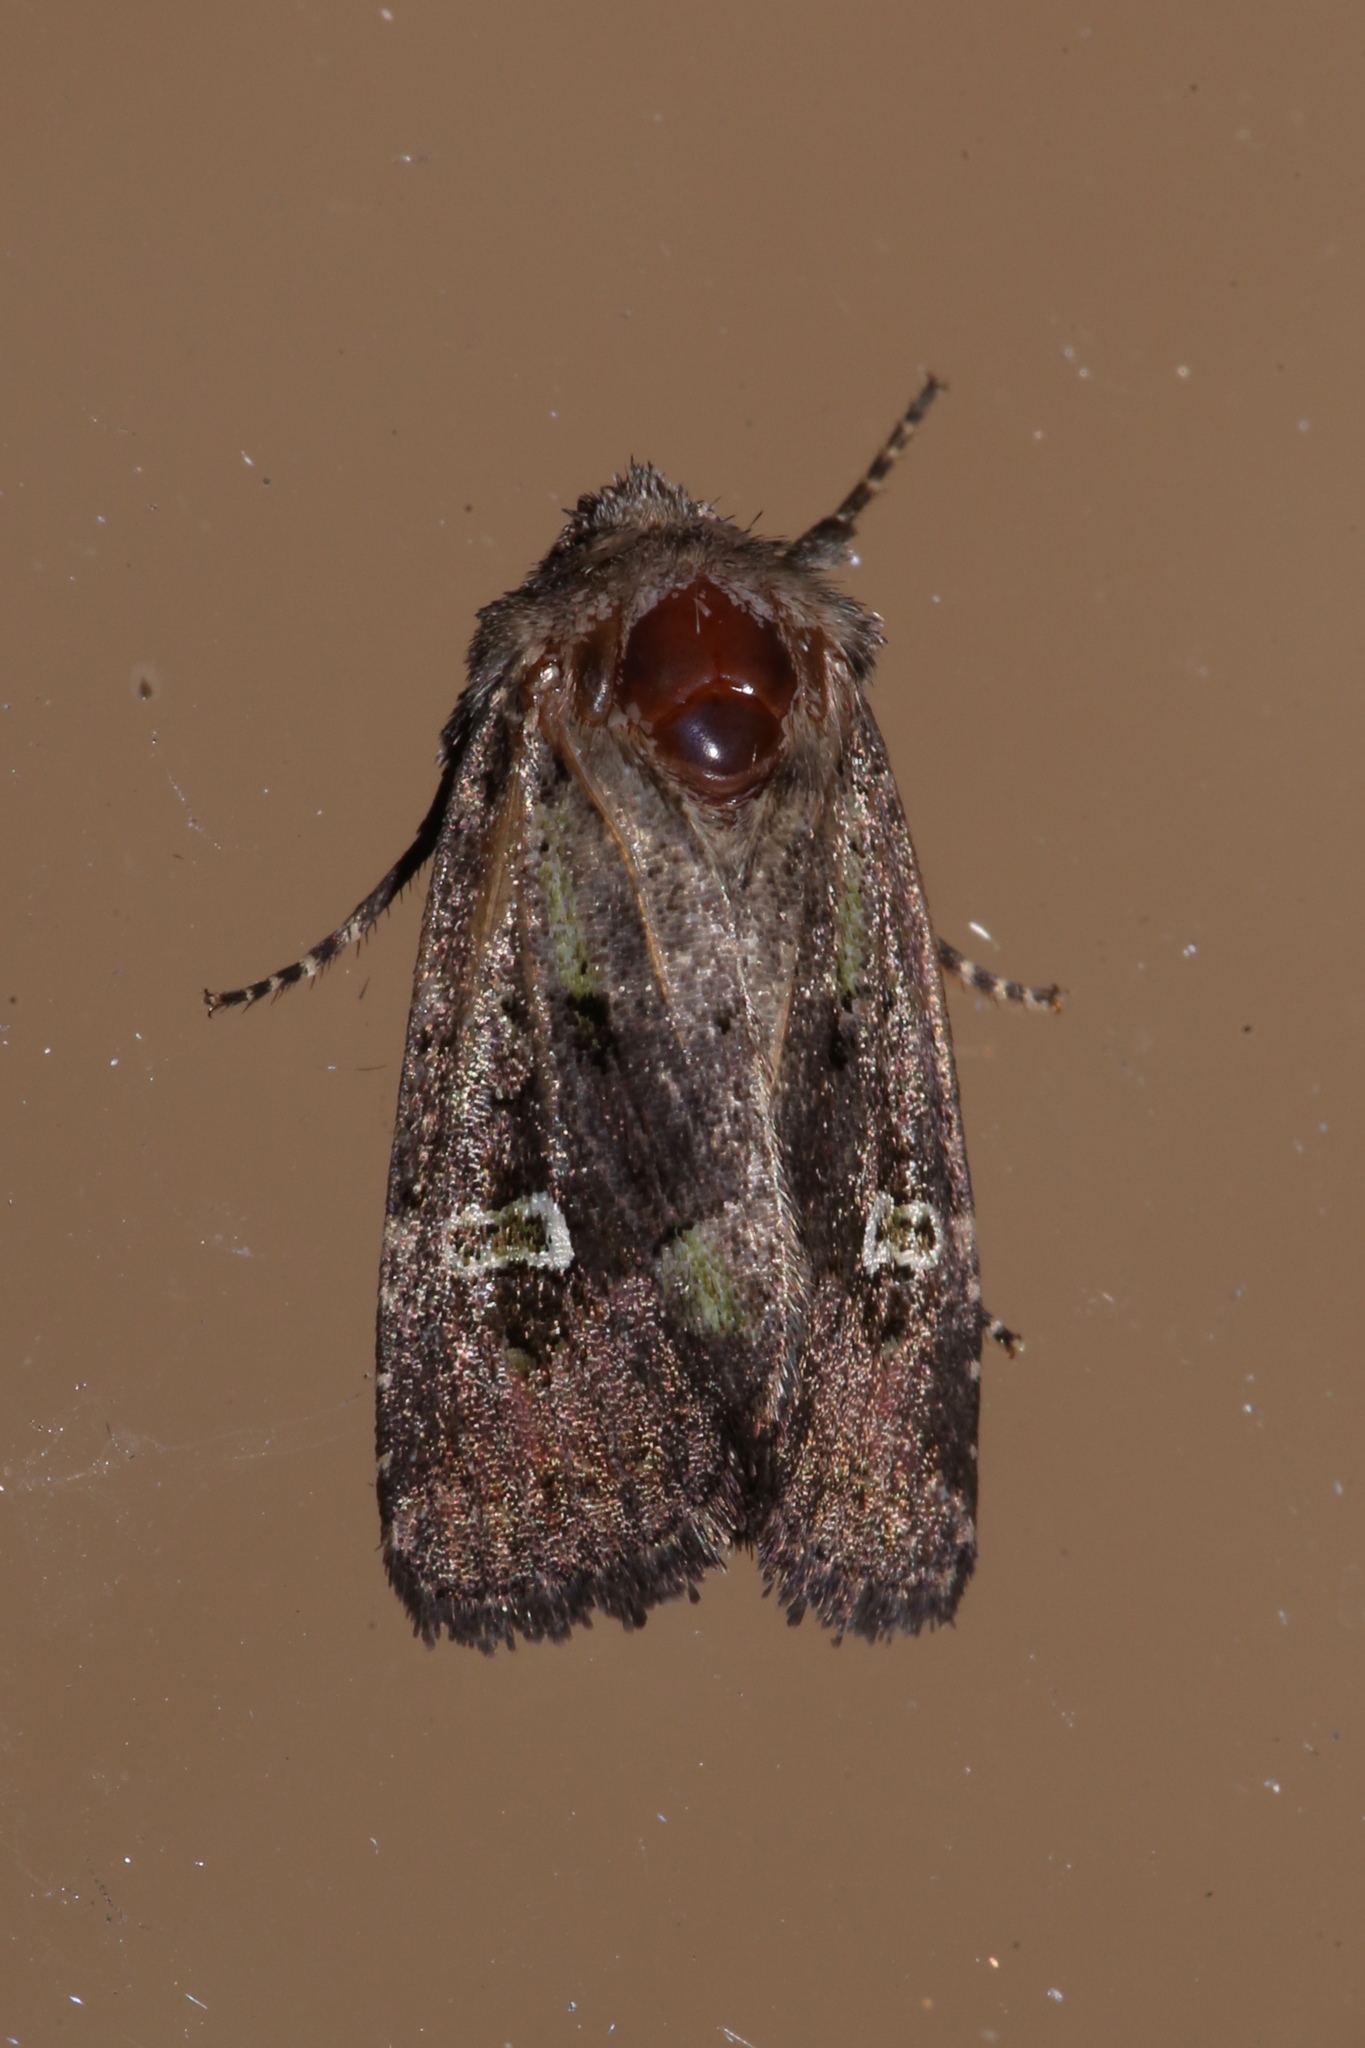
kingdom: Animalia
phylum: Arthropoda
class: Insecta
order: Lepidoptera
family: Noctuidae
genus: Lacinipolia
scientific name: Lacinipolia renigera
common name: Kidney-spotted minor
